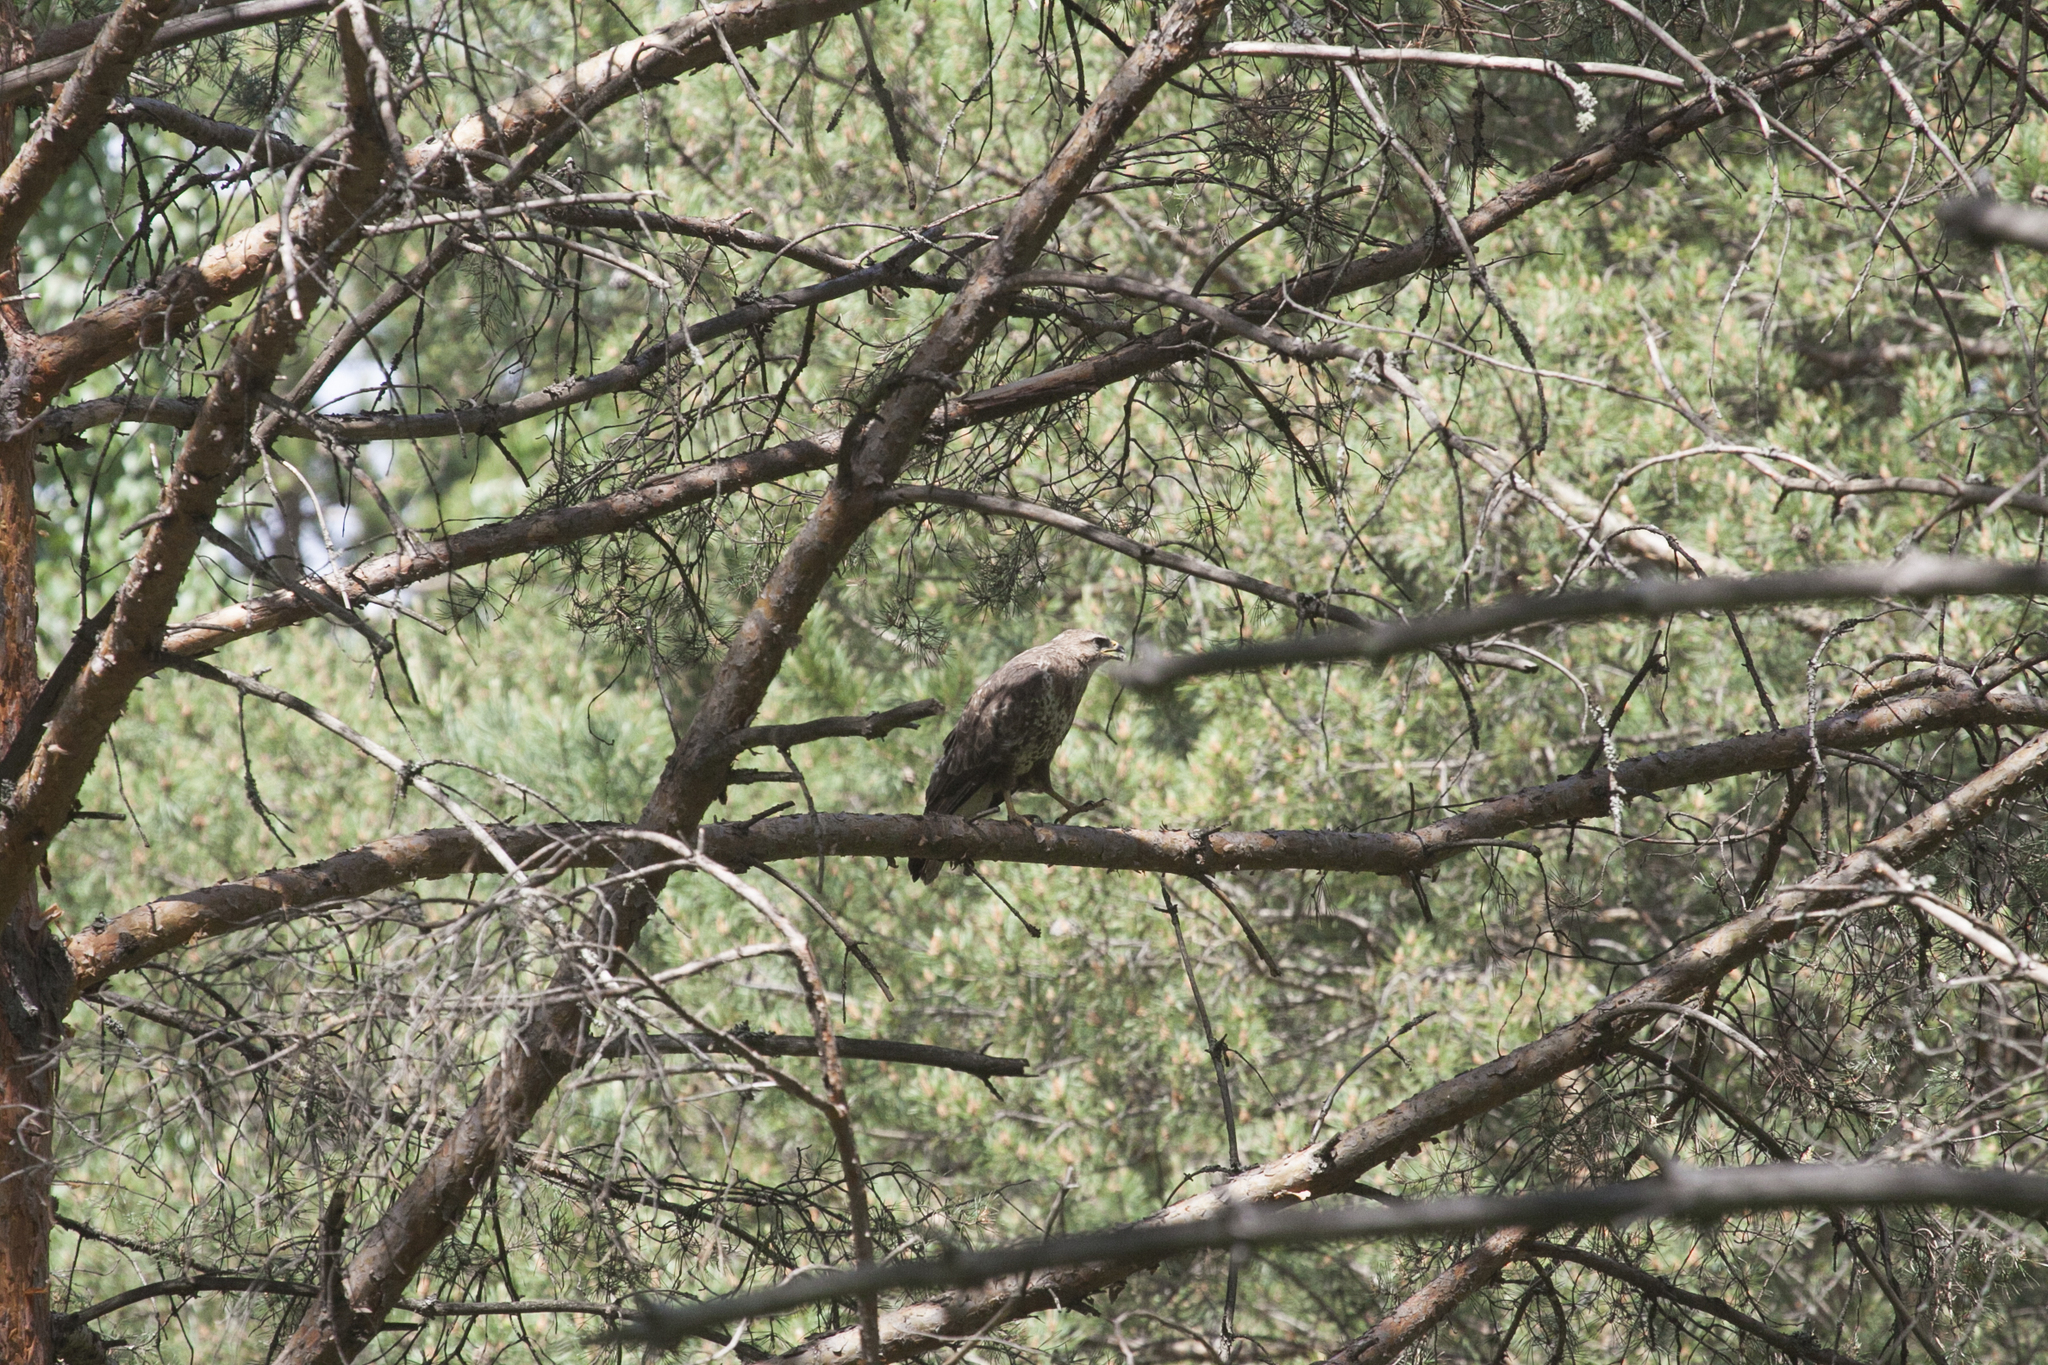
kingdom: Animalia
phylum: Chordata
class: Aves
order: Accipitriformes
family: Accipitridae
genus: Buteo
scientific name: Buteo buteo
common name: Common buzzard
